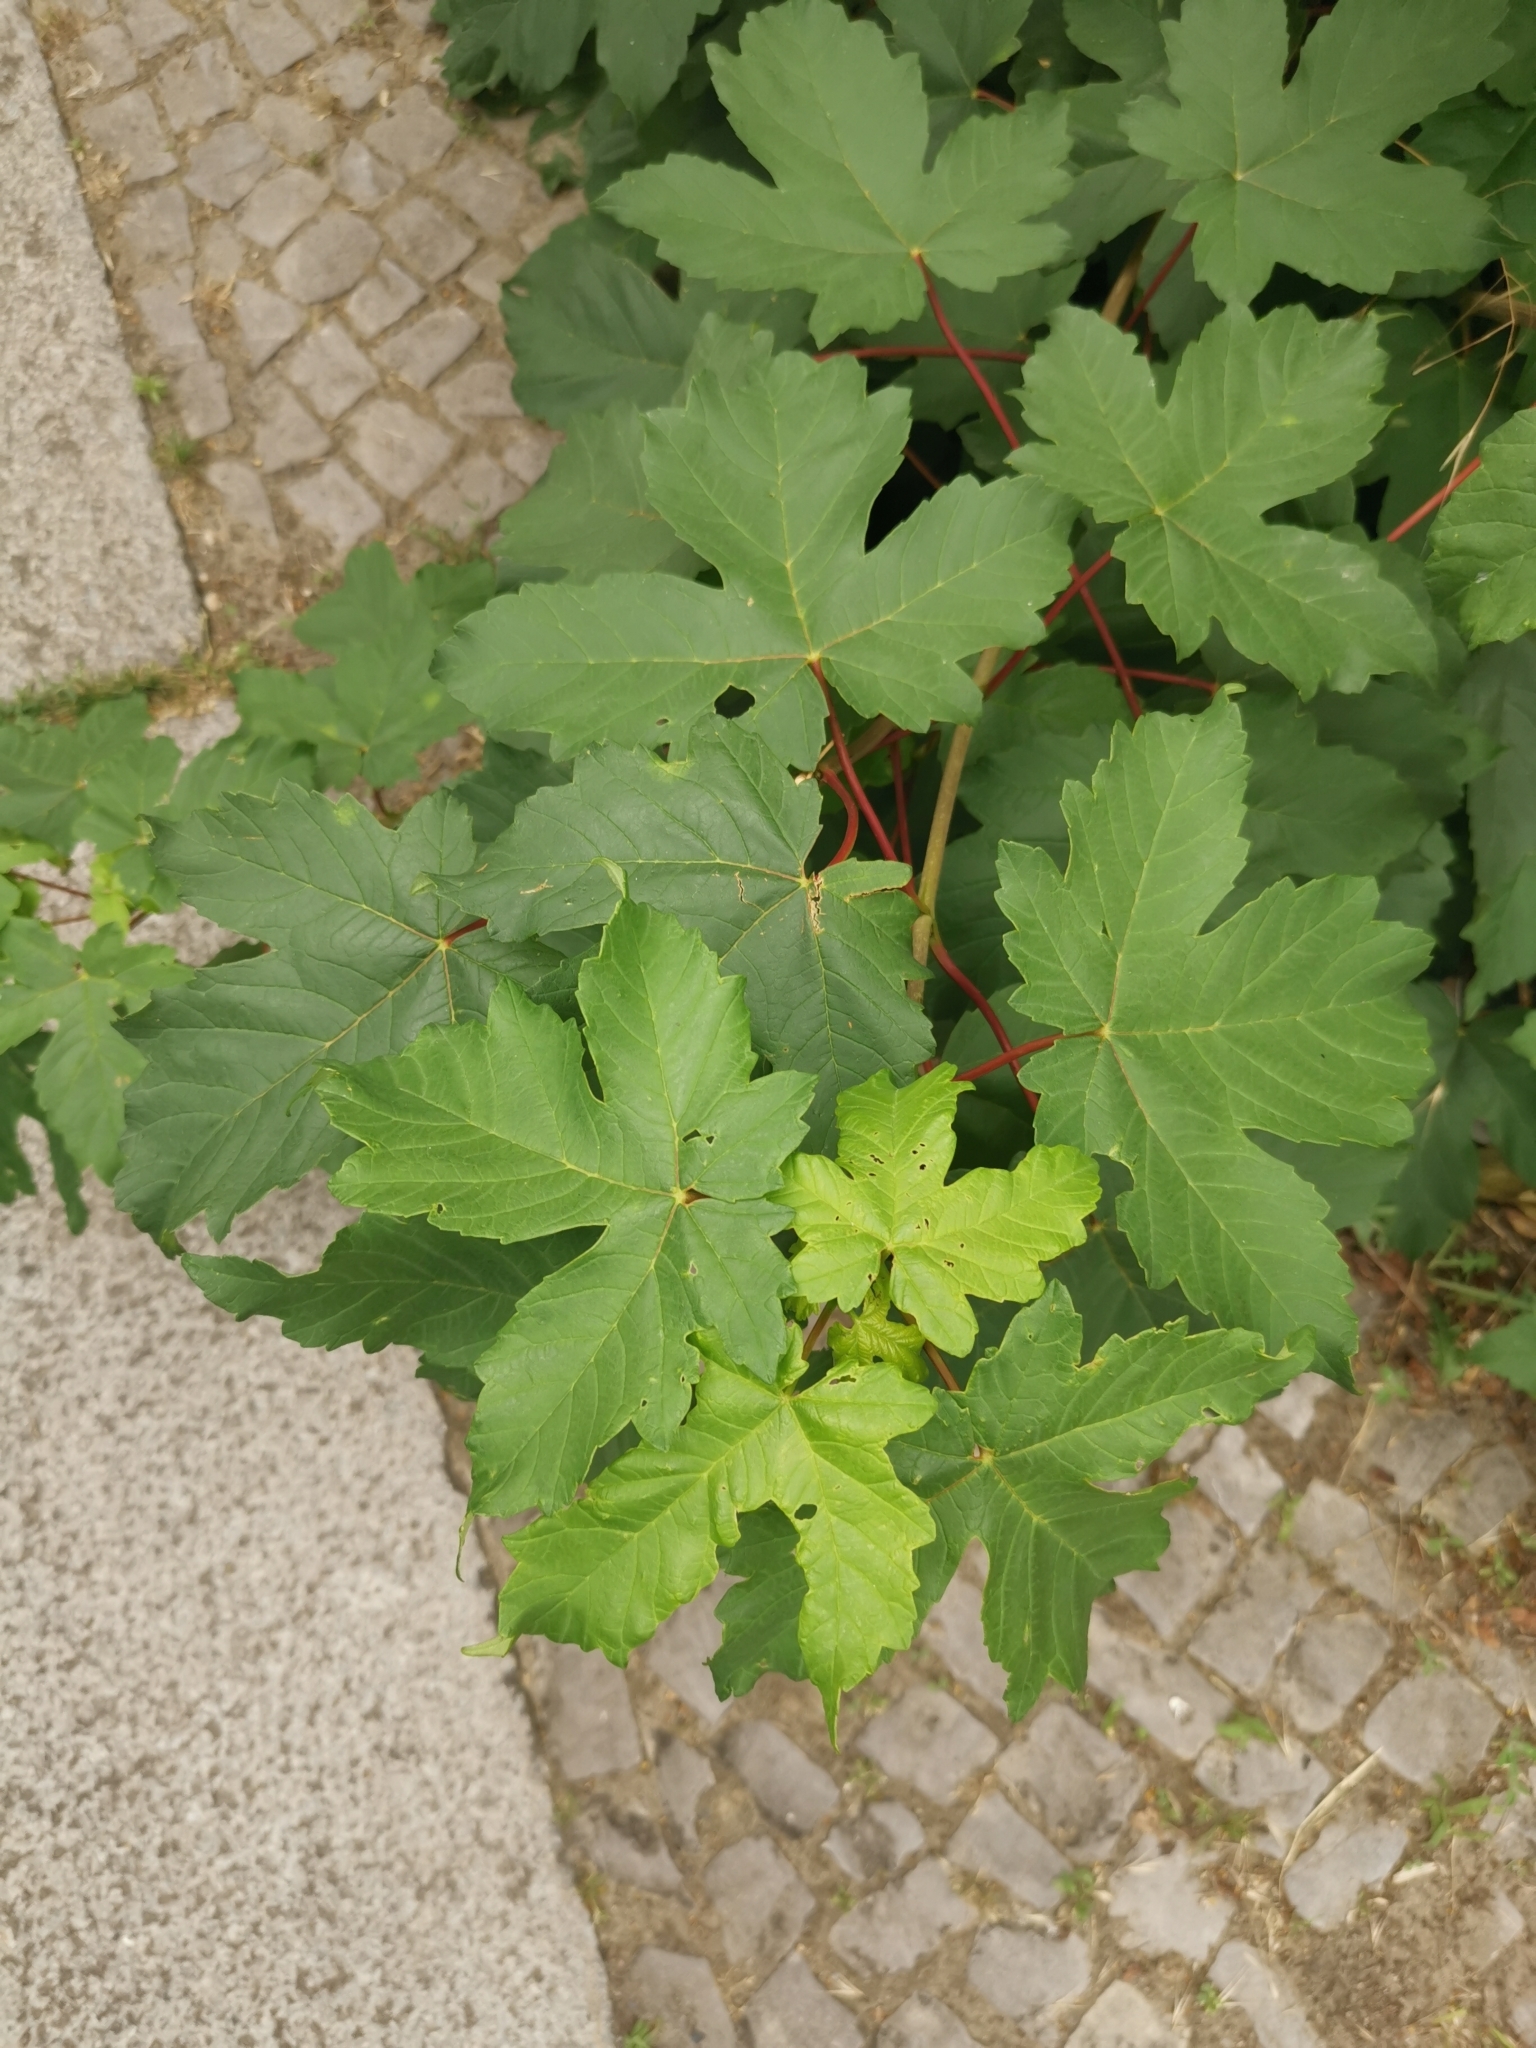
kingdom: Plantae
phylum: Tracheophyta
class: Magnoliopsida
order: Sapindales
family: Sapindaceae
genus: Acer
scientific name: Acer pseudoplatanus
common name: Sycamore
